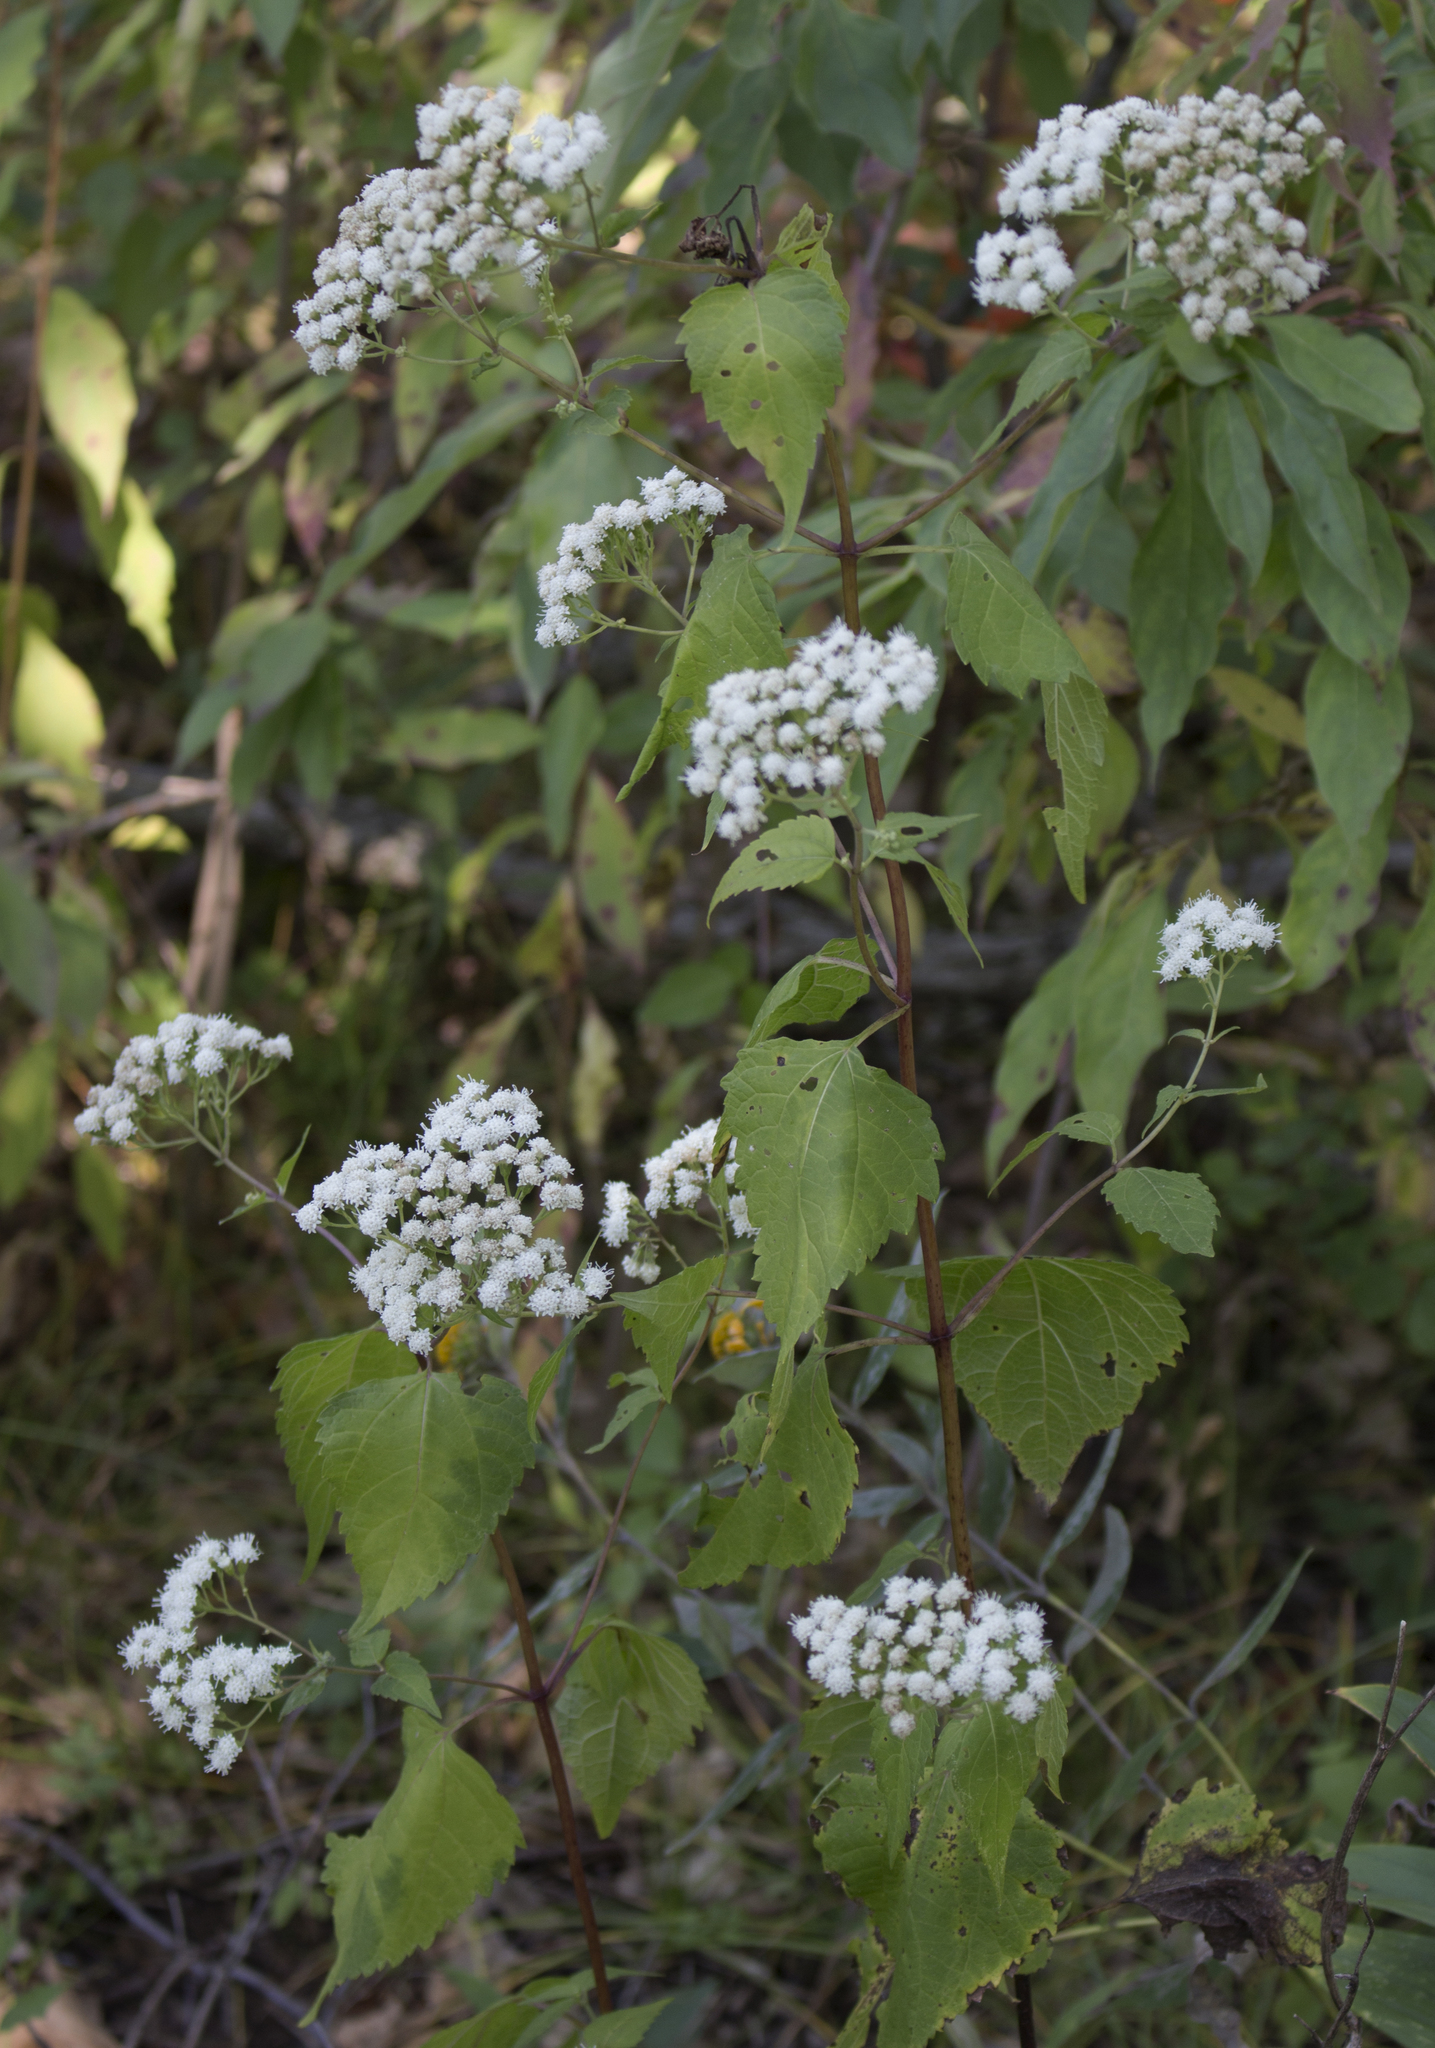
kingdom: Plantae
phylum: Tracheophyta
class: Magnoliopsida
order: Asterales
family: Asteraceae
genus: Ageratina
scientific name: Ageratina altissima
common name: White snakeroot
